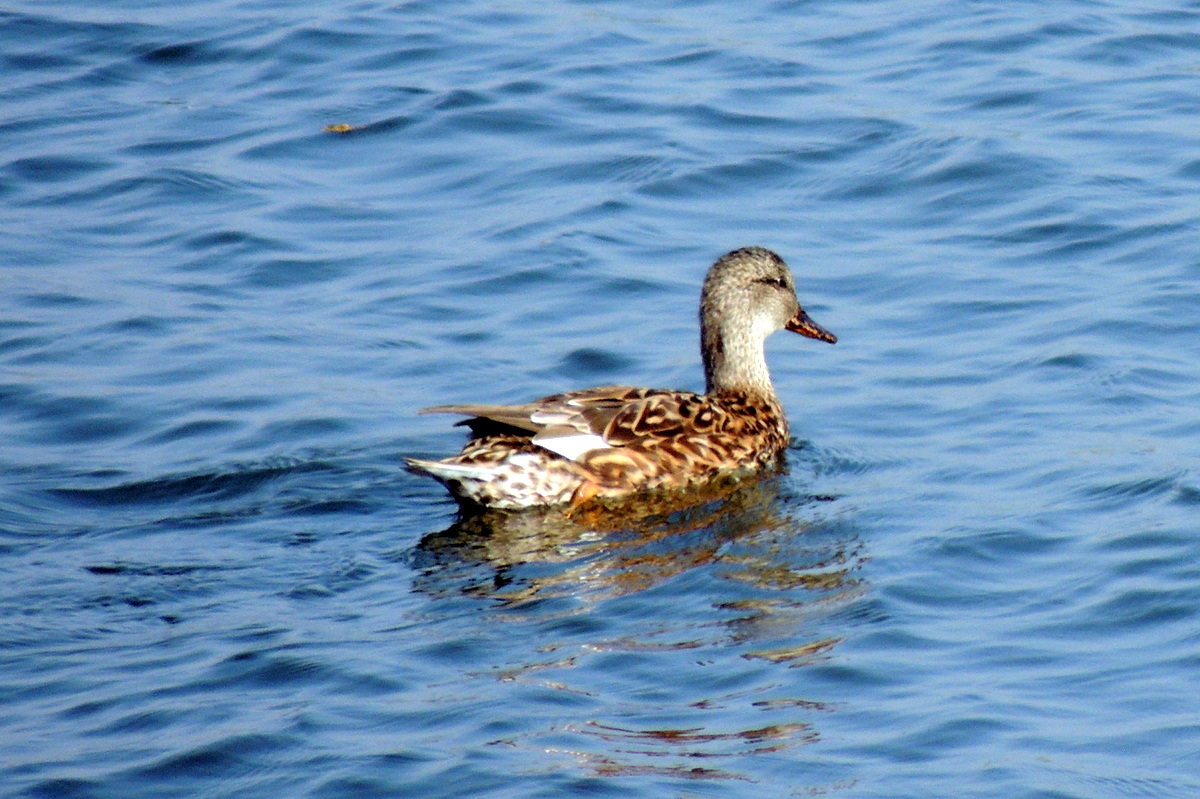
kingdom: Animalia
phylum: Chordata
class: Aves
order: Anseriformes
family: Anatidae
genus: Mareca
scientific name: Mareca strepera
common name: Gadwall
